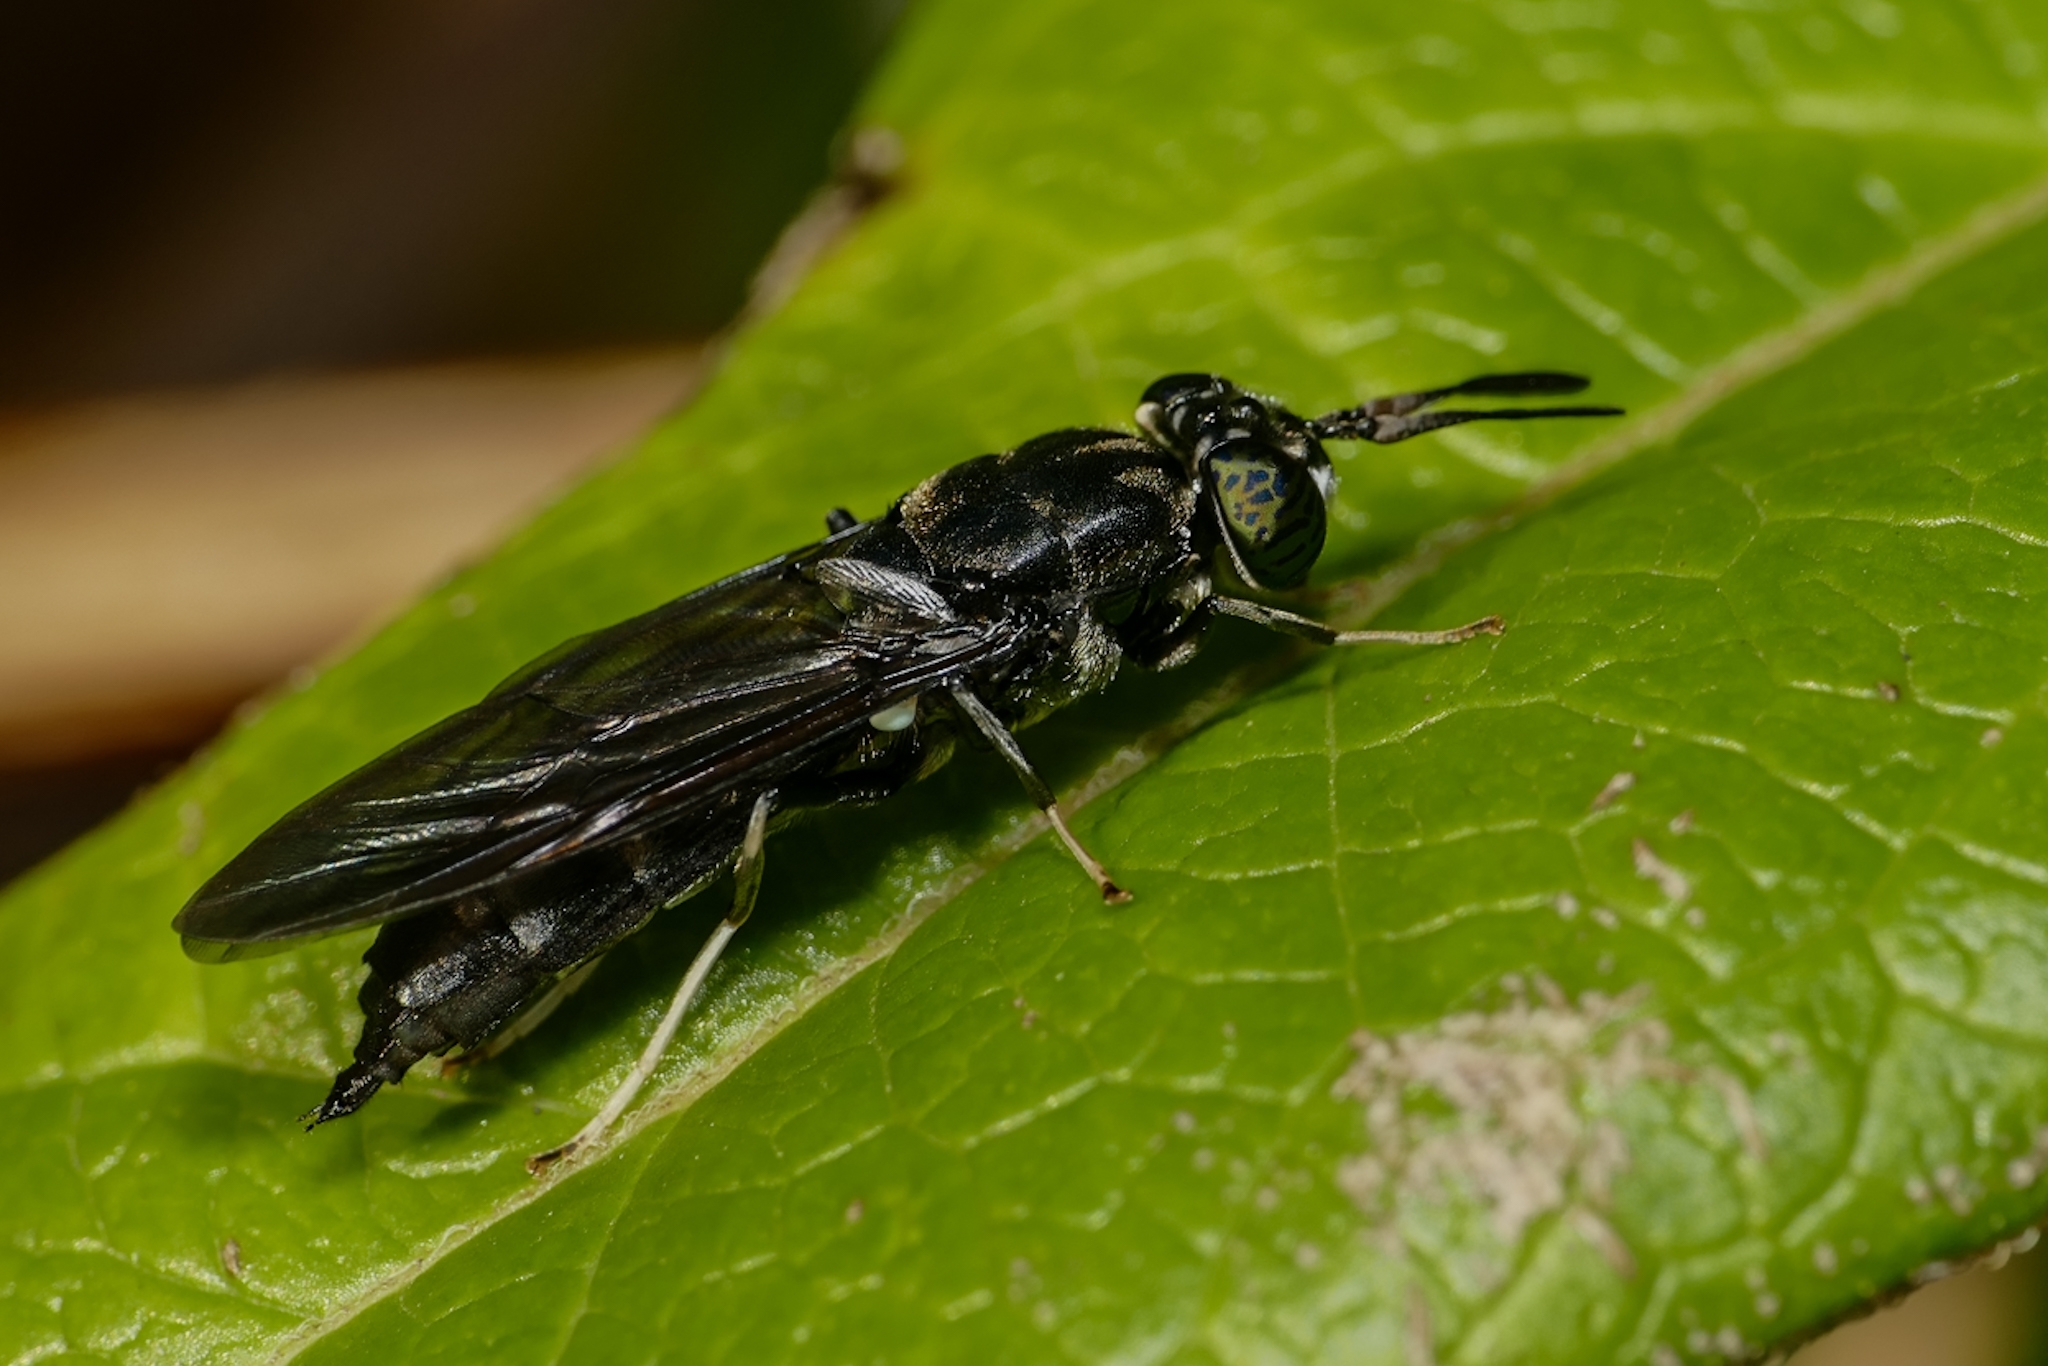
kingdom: Animalia
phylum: Arthropoda
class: Insecta
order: Diptera
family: Stratiomyidae
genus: Hermetia
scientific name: Hermetia illucens
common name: Black soldier fly
